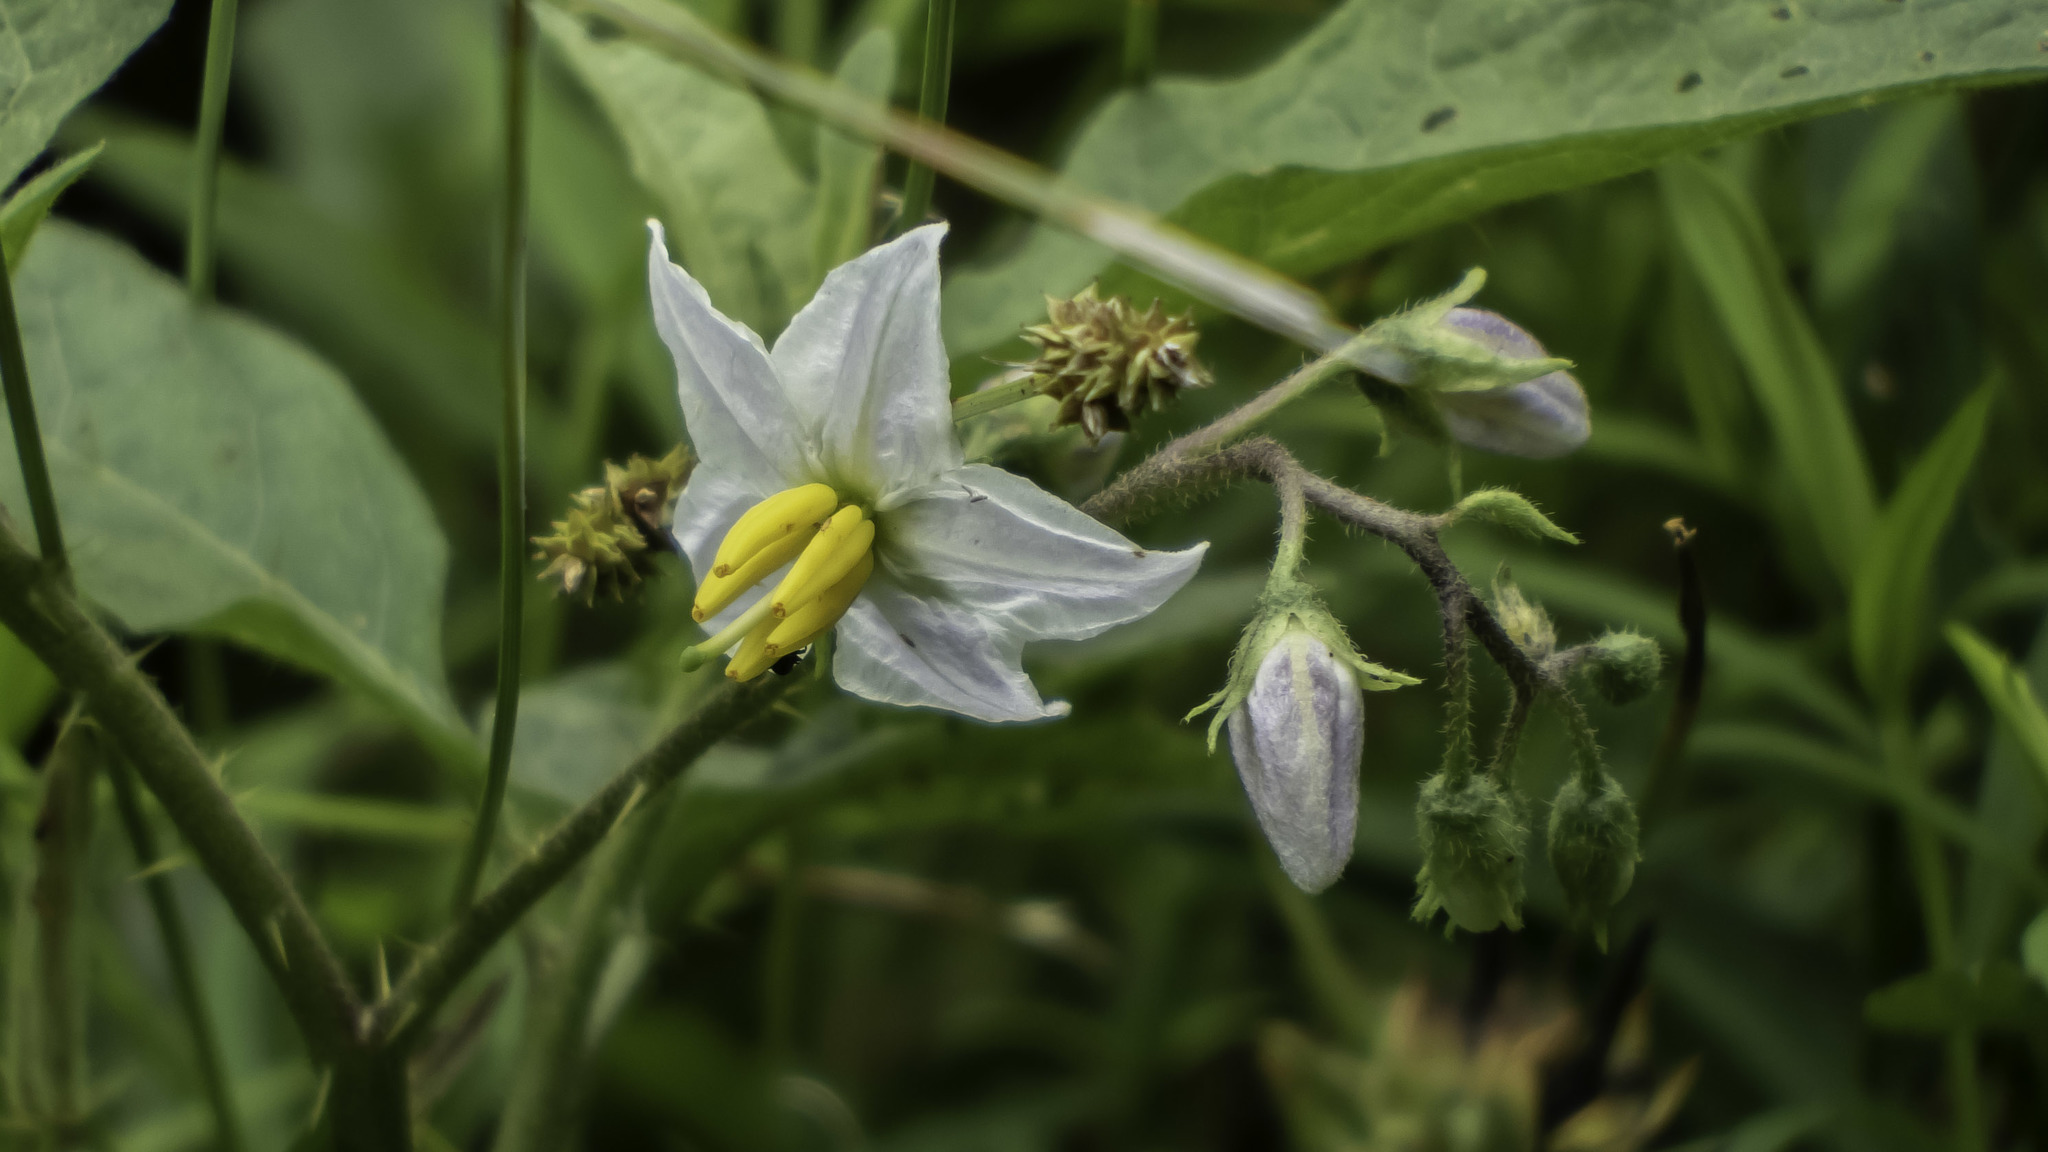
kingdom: Plantae
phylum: Tracheophyta
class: Magnoliopsida
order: Solanales
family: Solanaceae
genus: Solanum
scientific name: Solanum carolinense
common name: Horse-nettle
